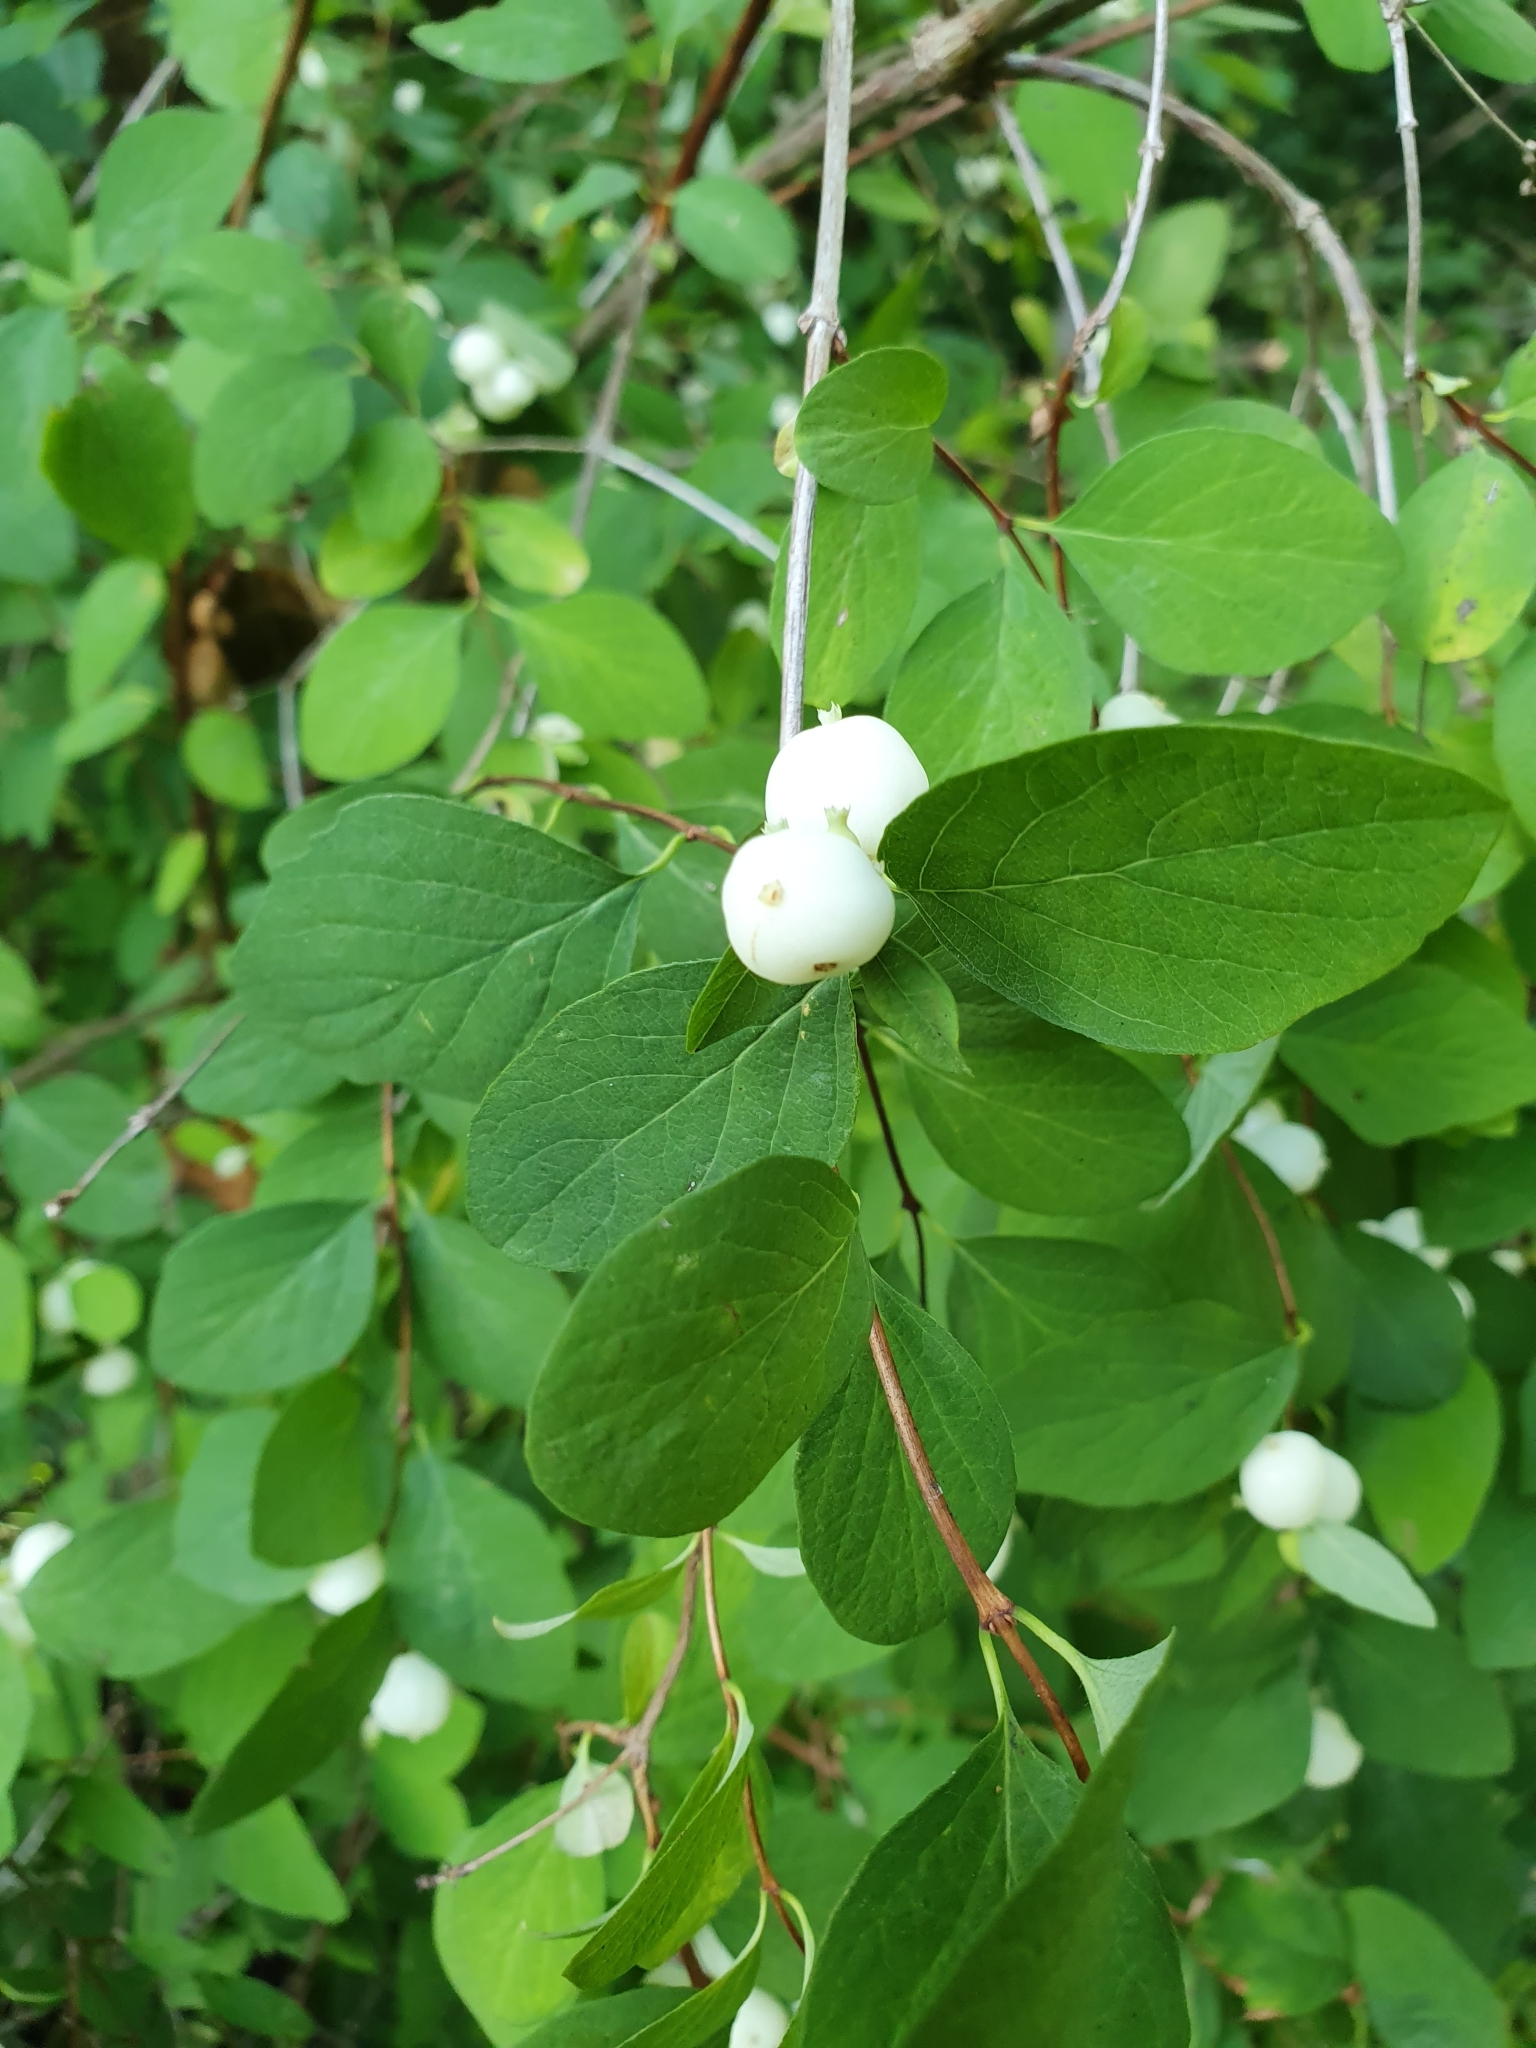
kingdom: Plantae
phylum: Tracheophyta
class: Magnoliopsida
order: Dipsacales
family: Caprifoliaceae
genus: Symphoricarpos
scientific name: Symphoricarpos albus
